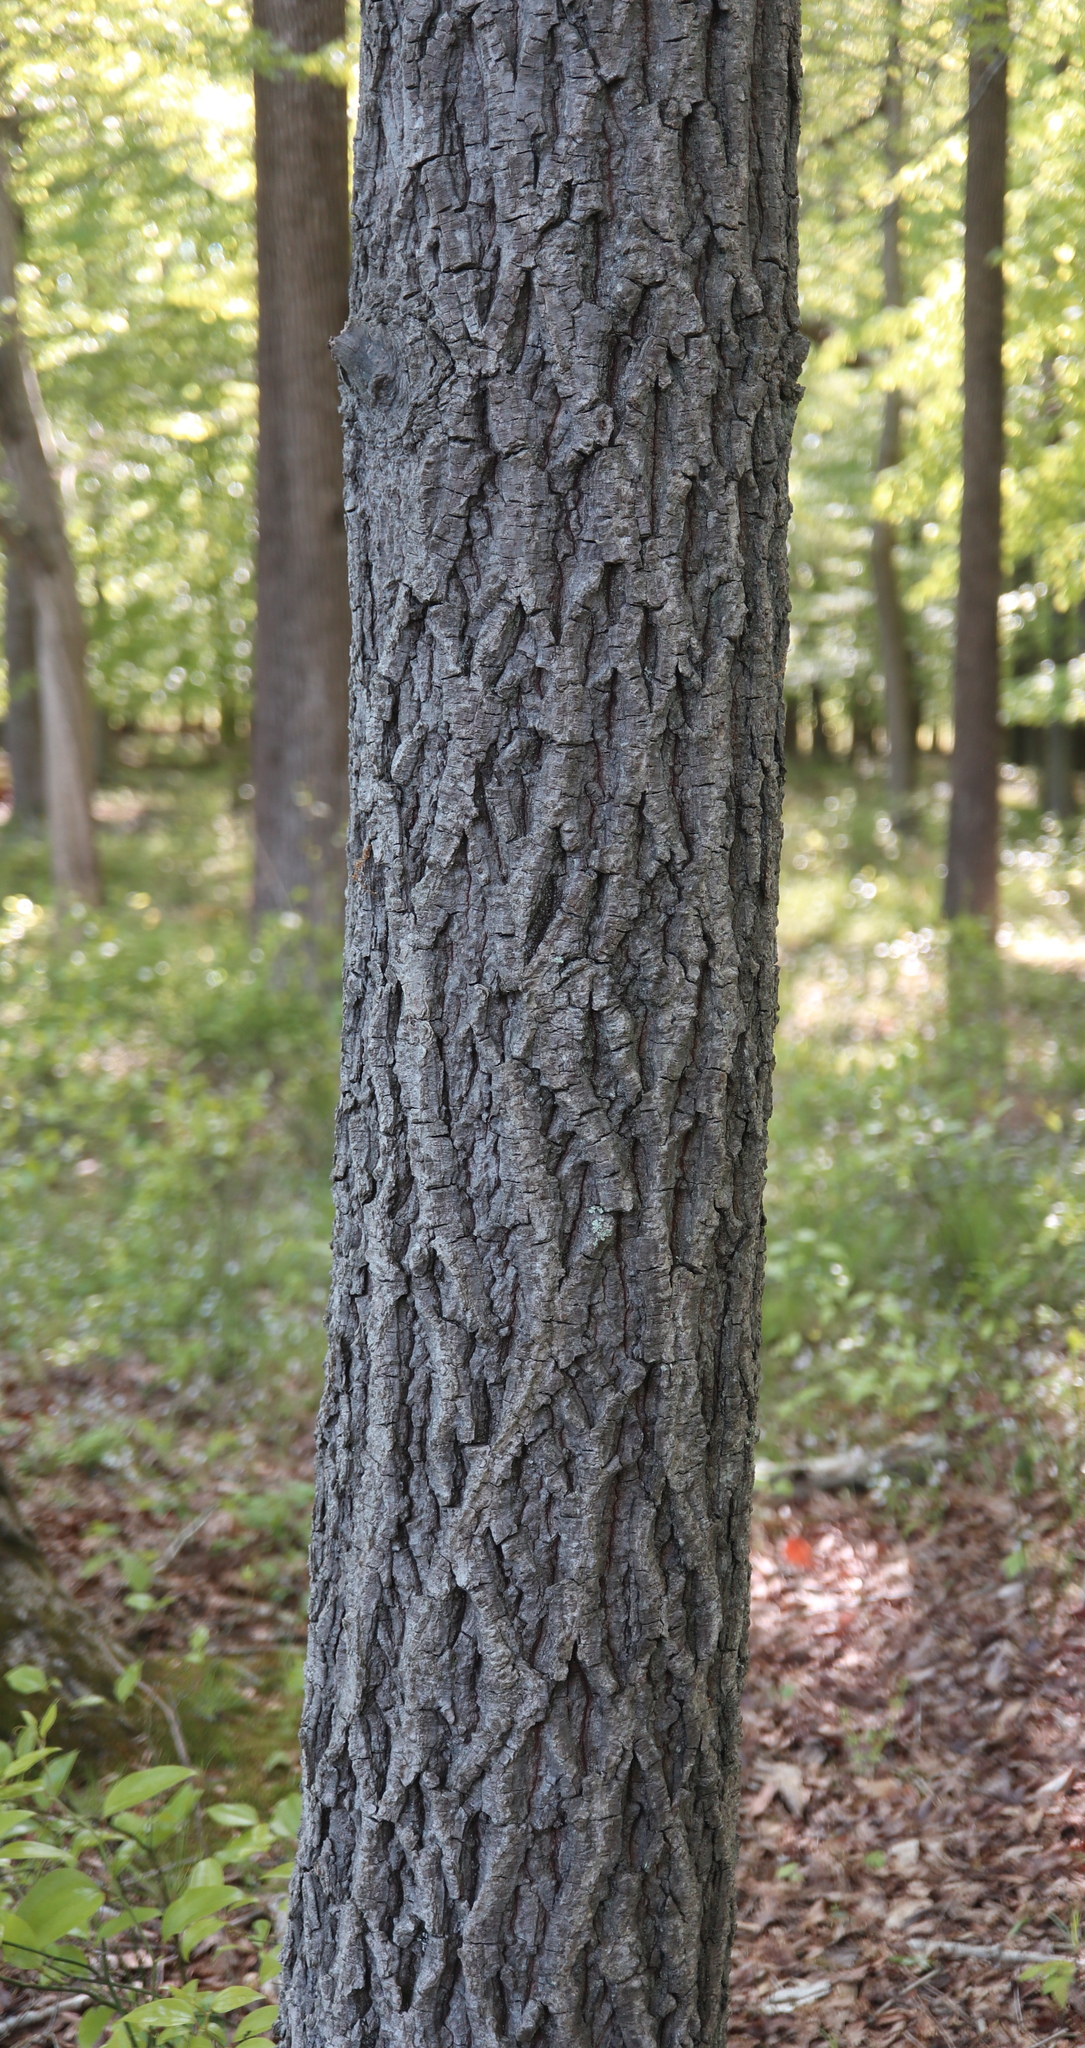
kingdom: Plantae
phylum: Tracheophyta
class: Magnoliopsida
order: Fagales
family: Juglandaceae
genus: Carya
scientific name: Carya alba
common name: Mockernut hickory
